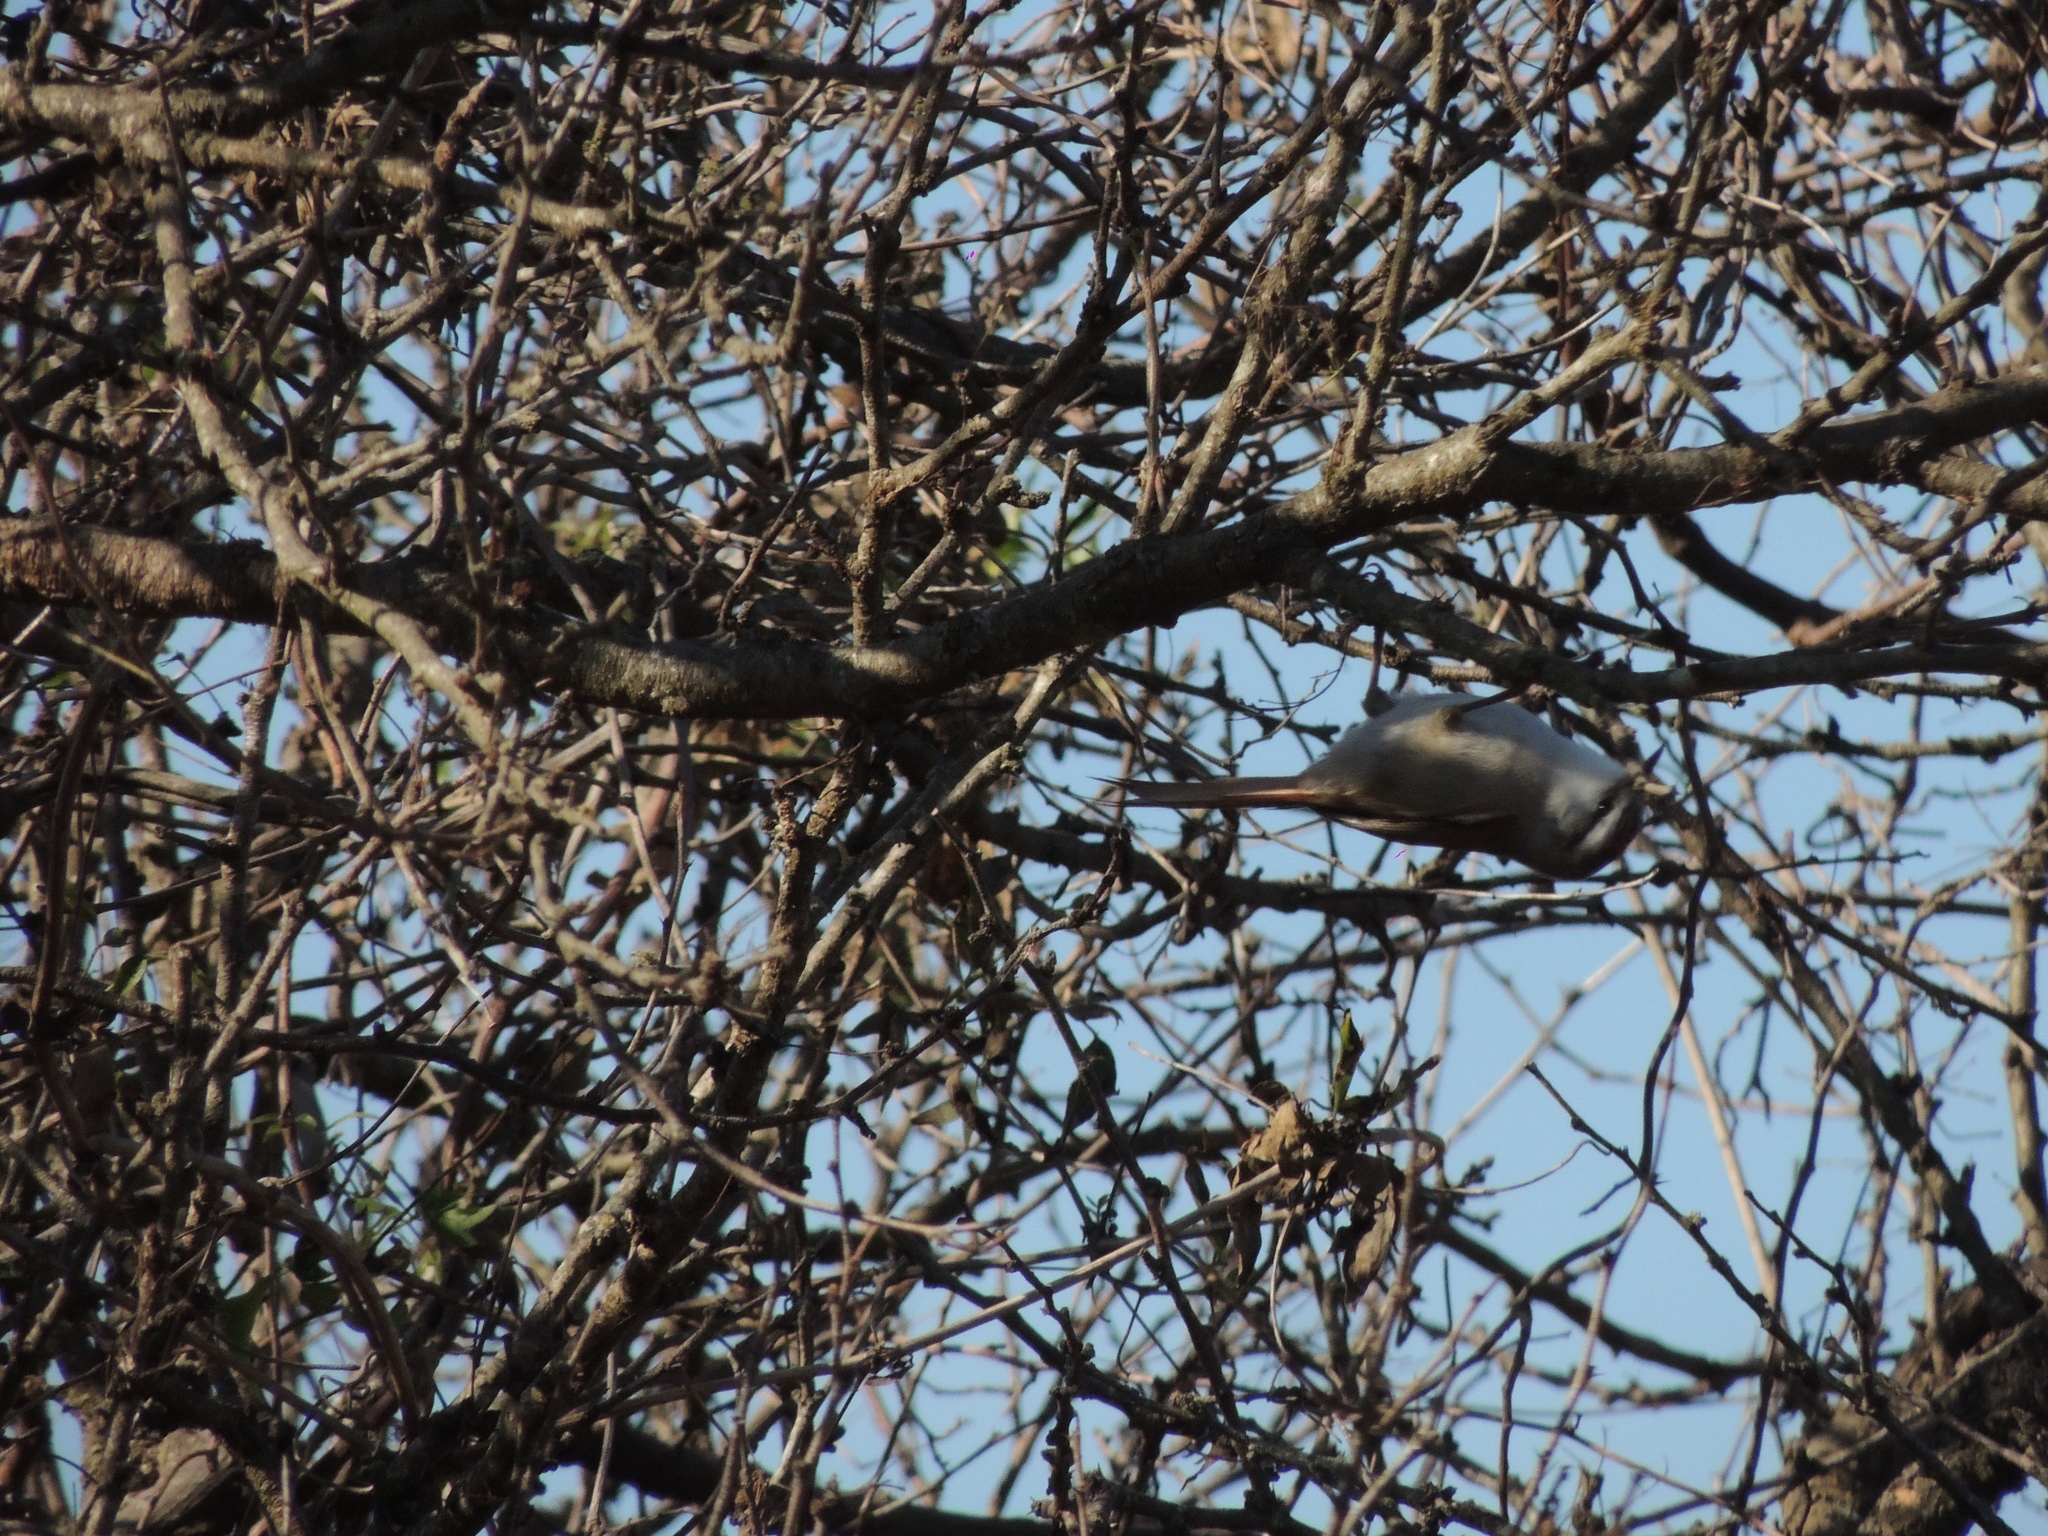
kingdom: Animalia
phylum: Chordata
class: Aves
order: Passeriformes
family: Furnariidae
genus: Cranioleuca
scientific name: Cranioleuca pyrrhophia
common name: Stripe-crowned spinetail
